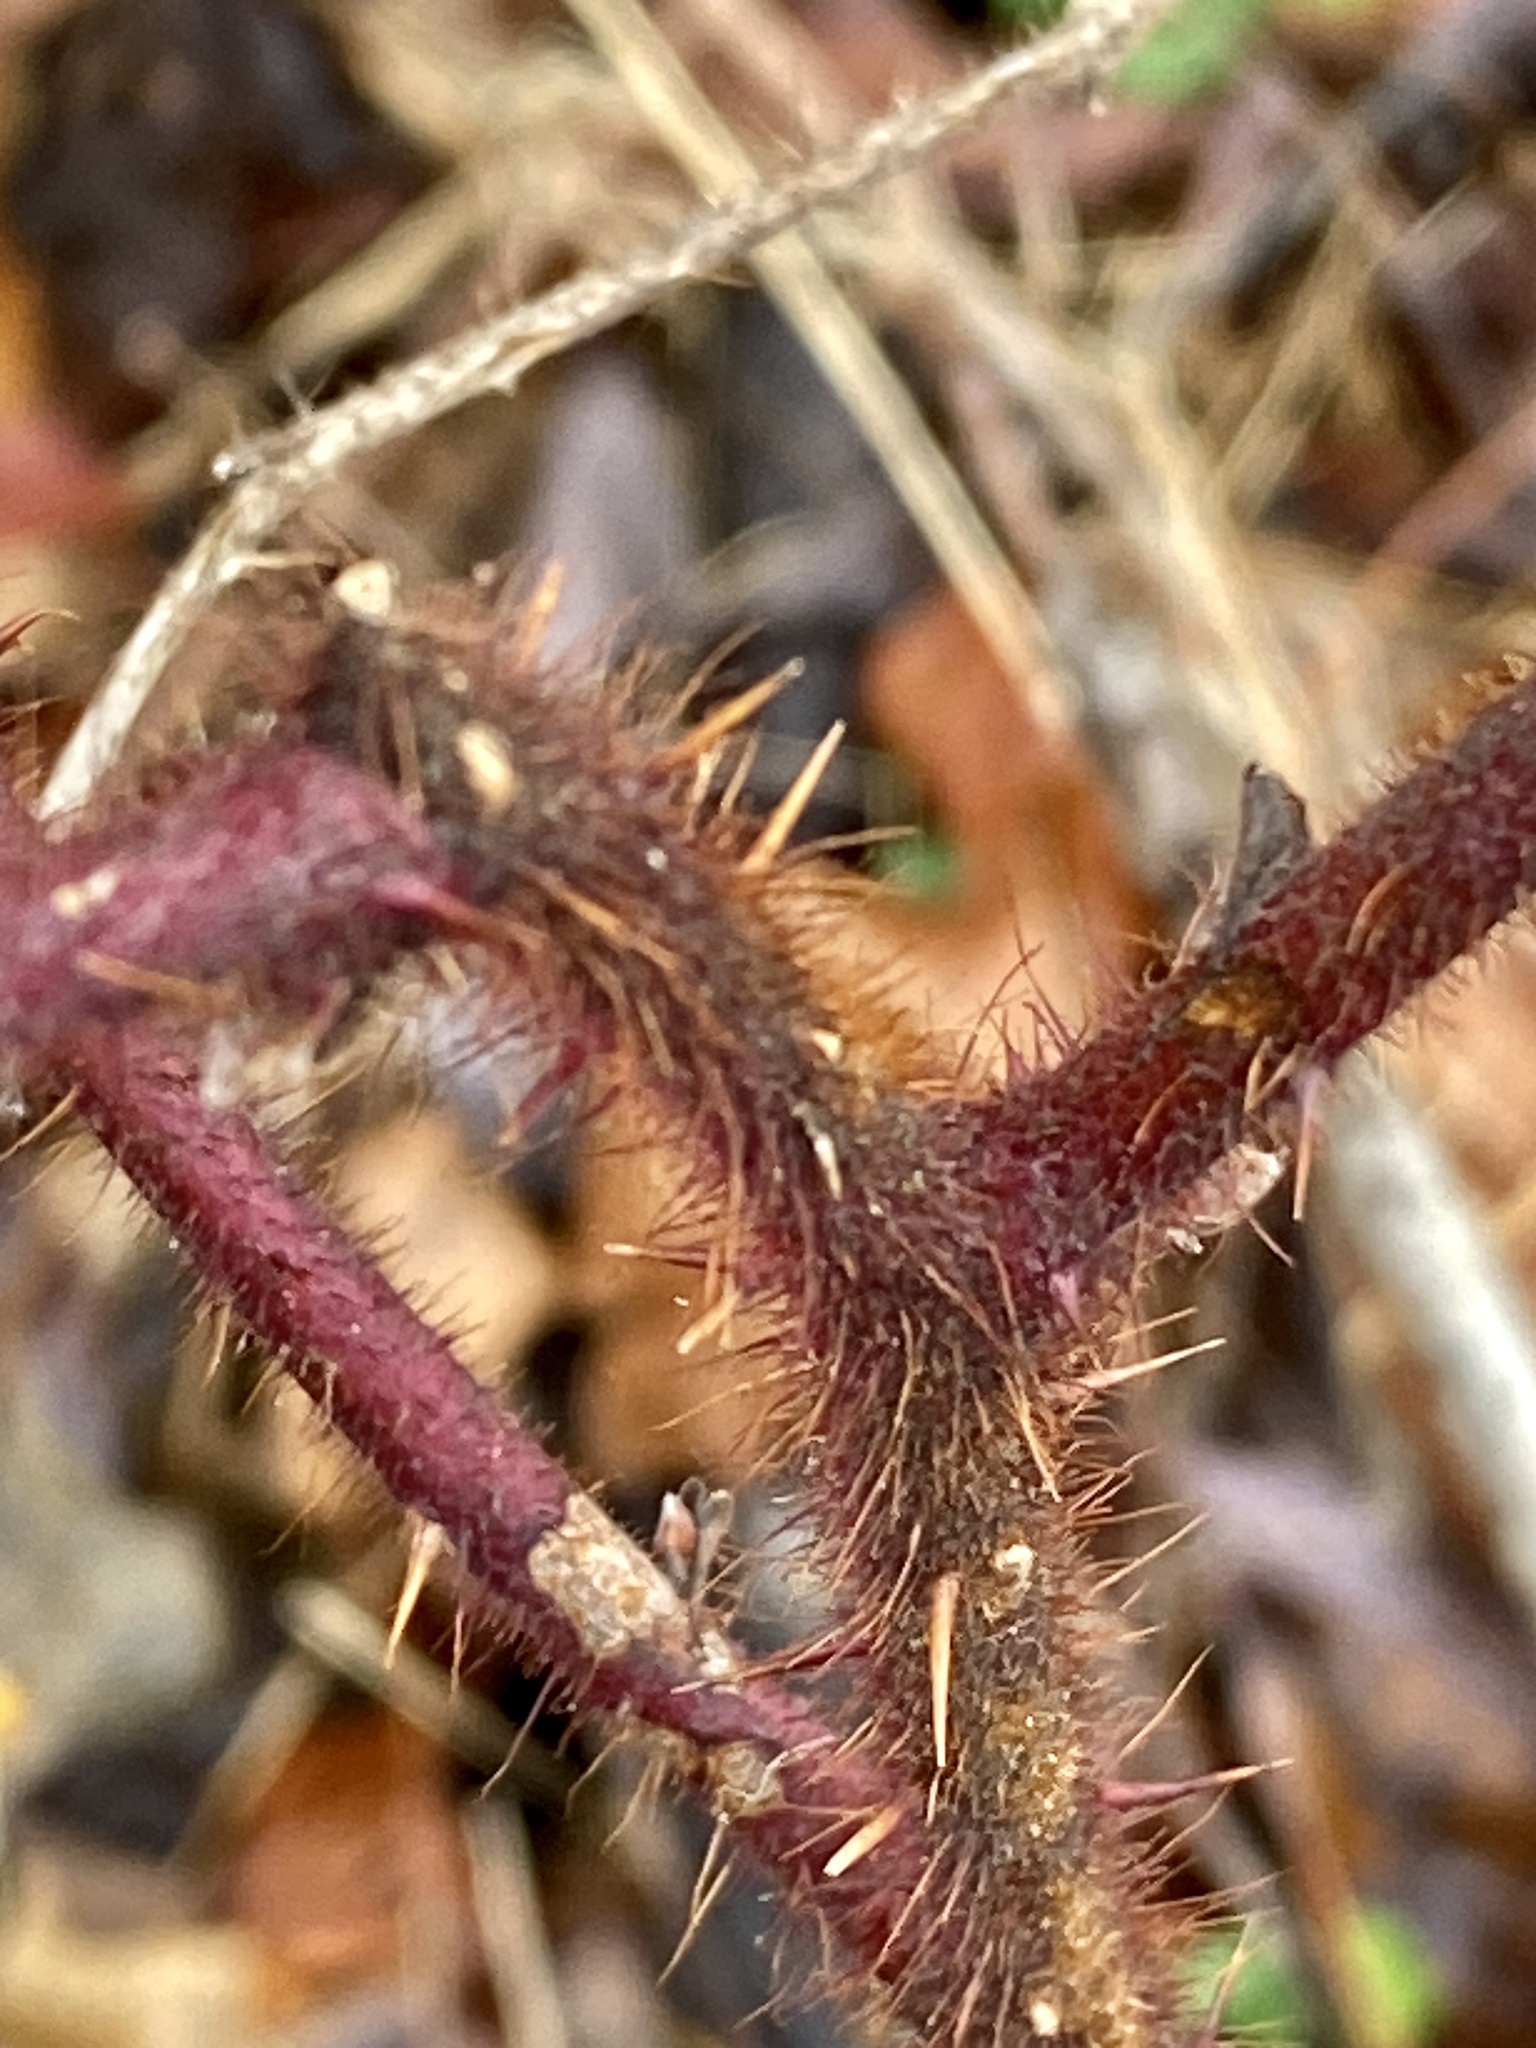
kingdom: Plantae
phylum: Tracheophyta
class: Magnoliopsida
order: Rosales
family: Rosaceae
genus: Rubus
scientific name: Rubus phoenicolasius
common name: Japanese wineberry
